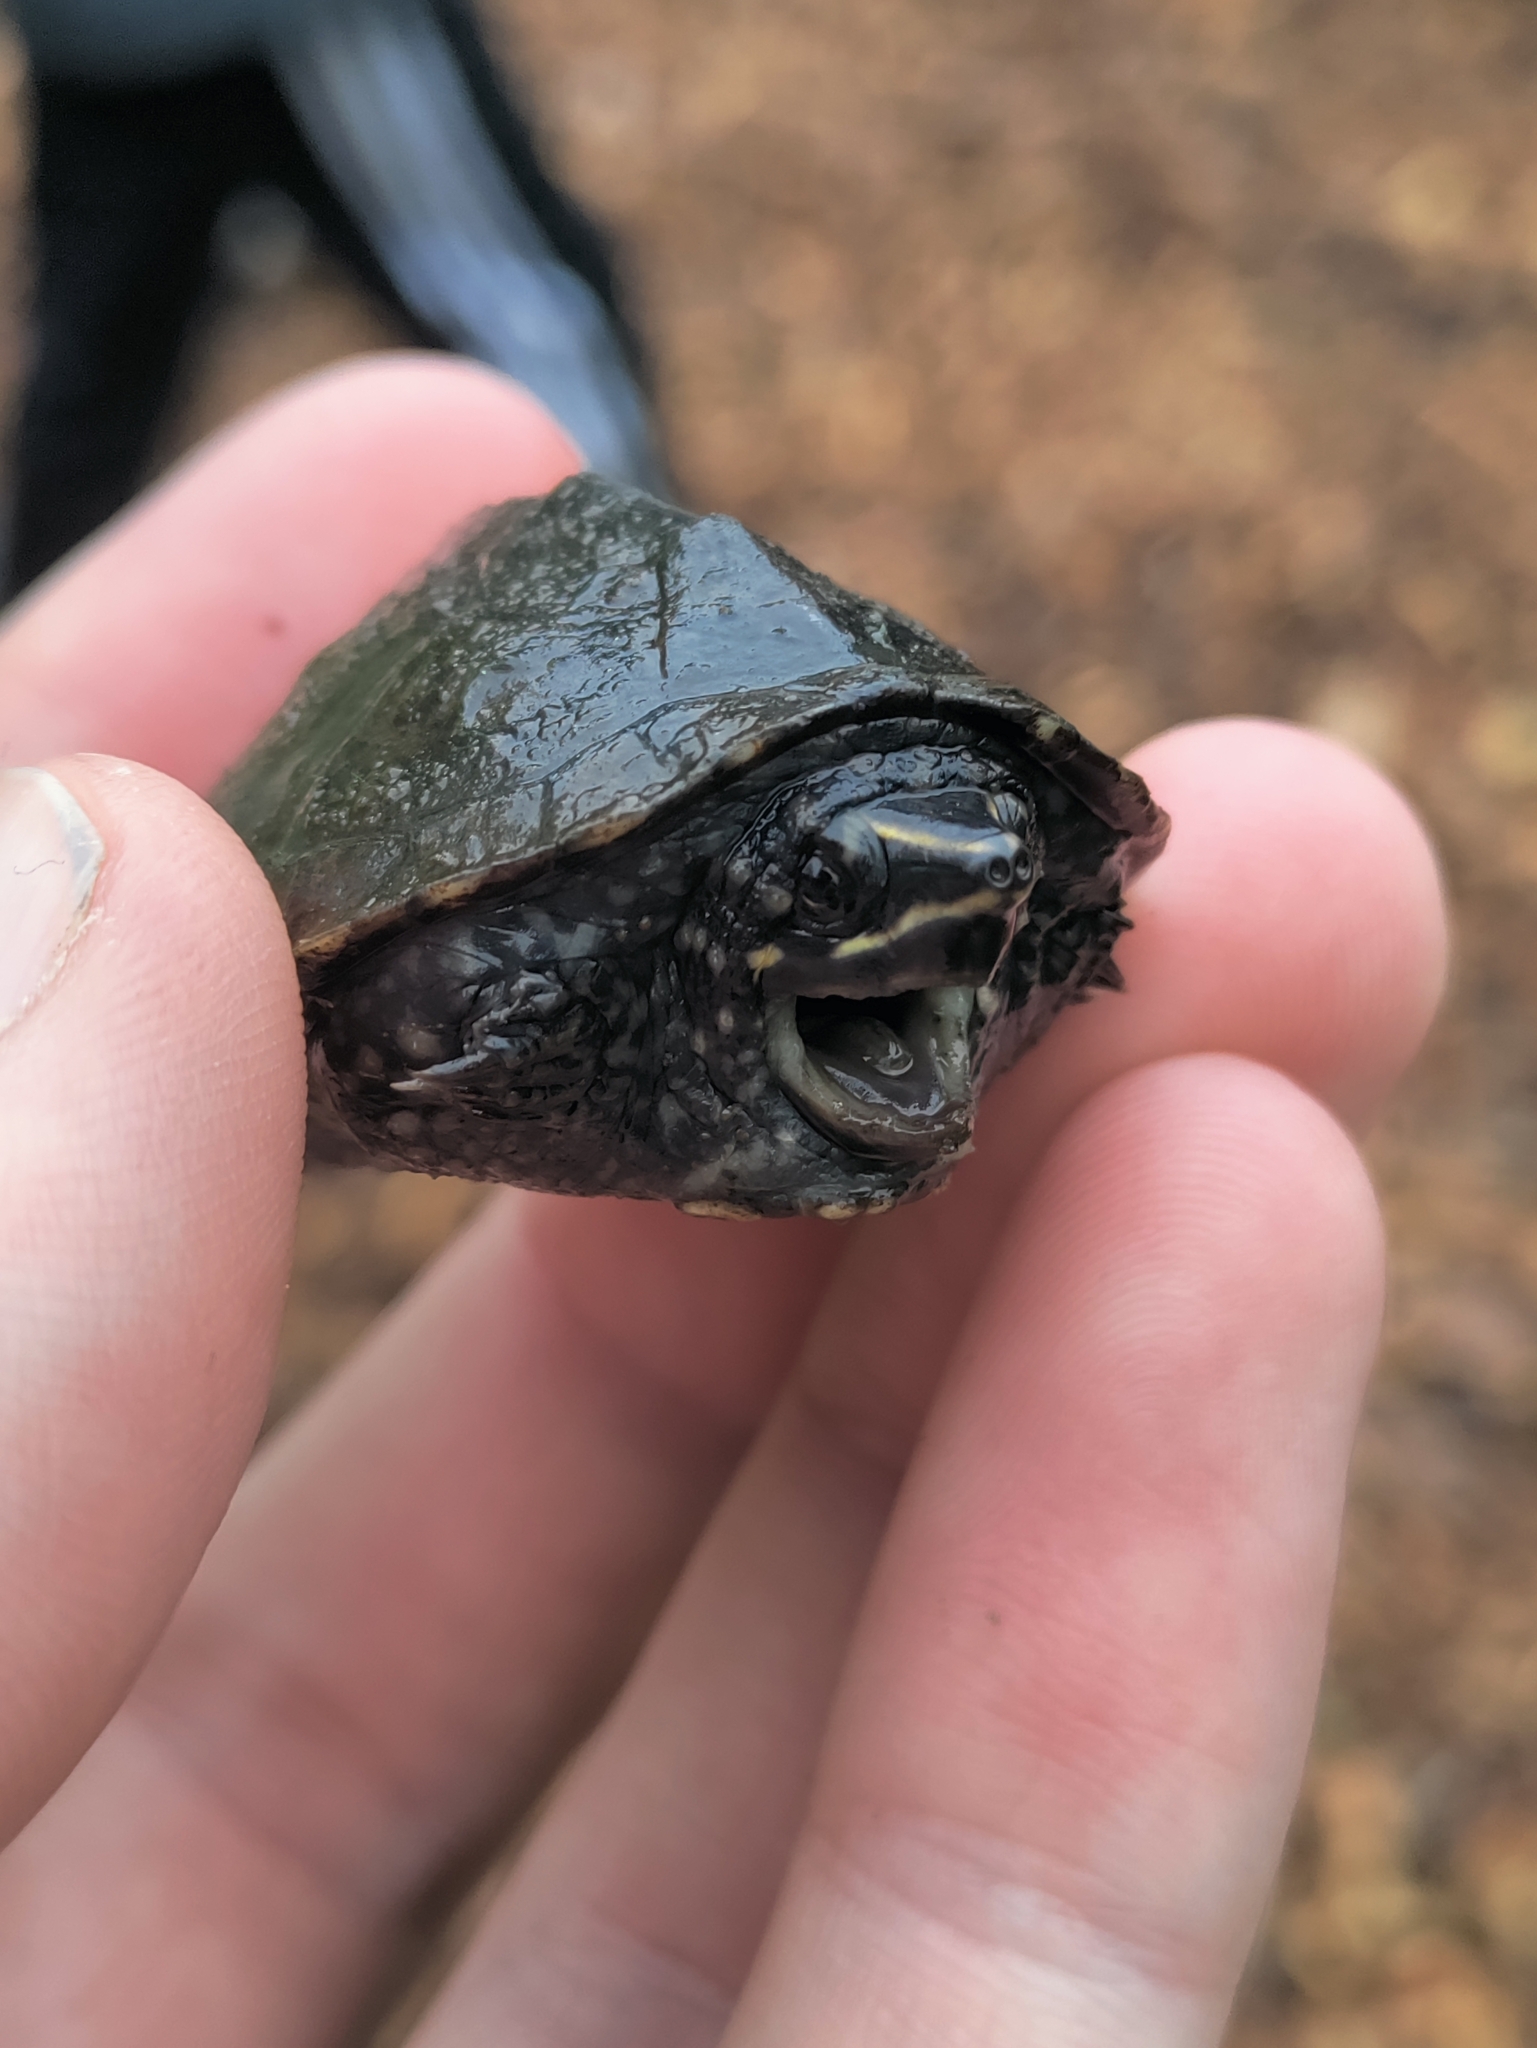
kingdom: Animalia
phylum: Chordata
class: Testudines
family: Kinosternidae
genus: Sternotherus
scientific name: Sternotherus odoratus
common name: Common musk turtle
